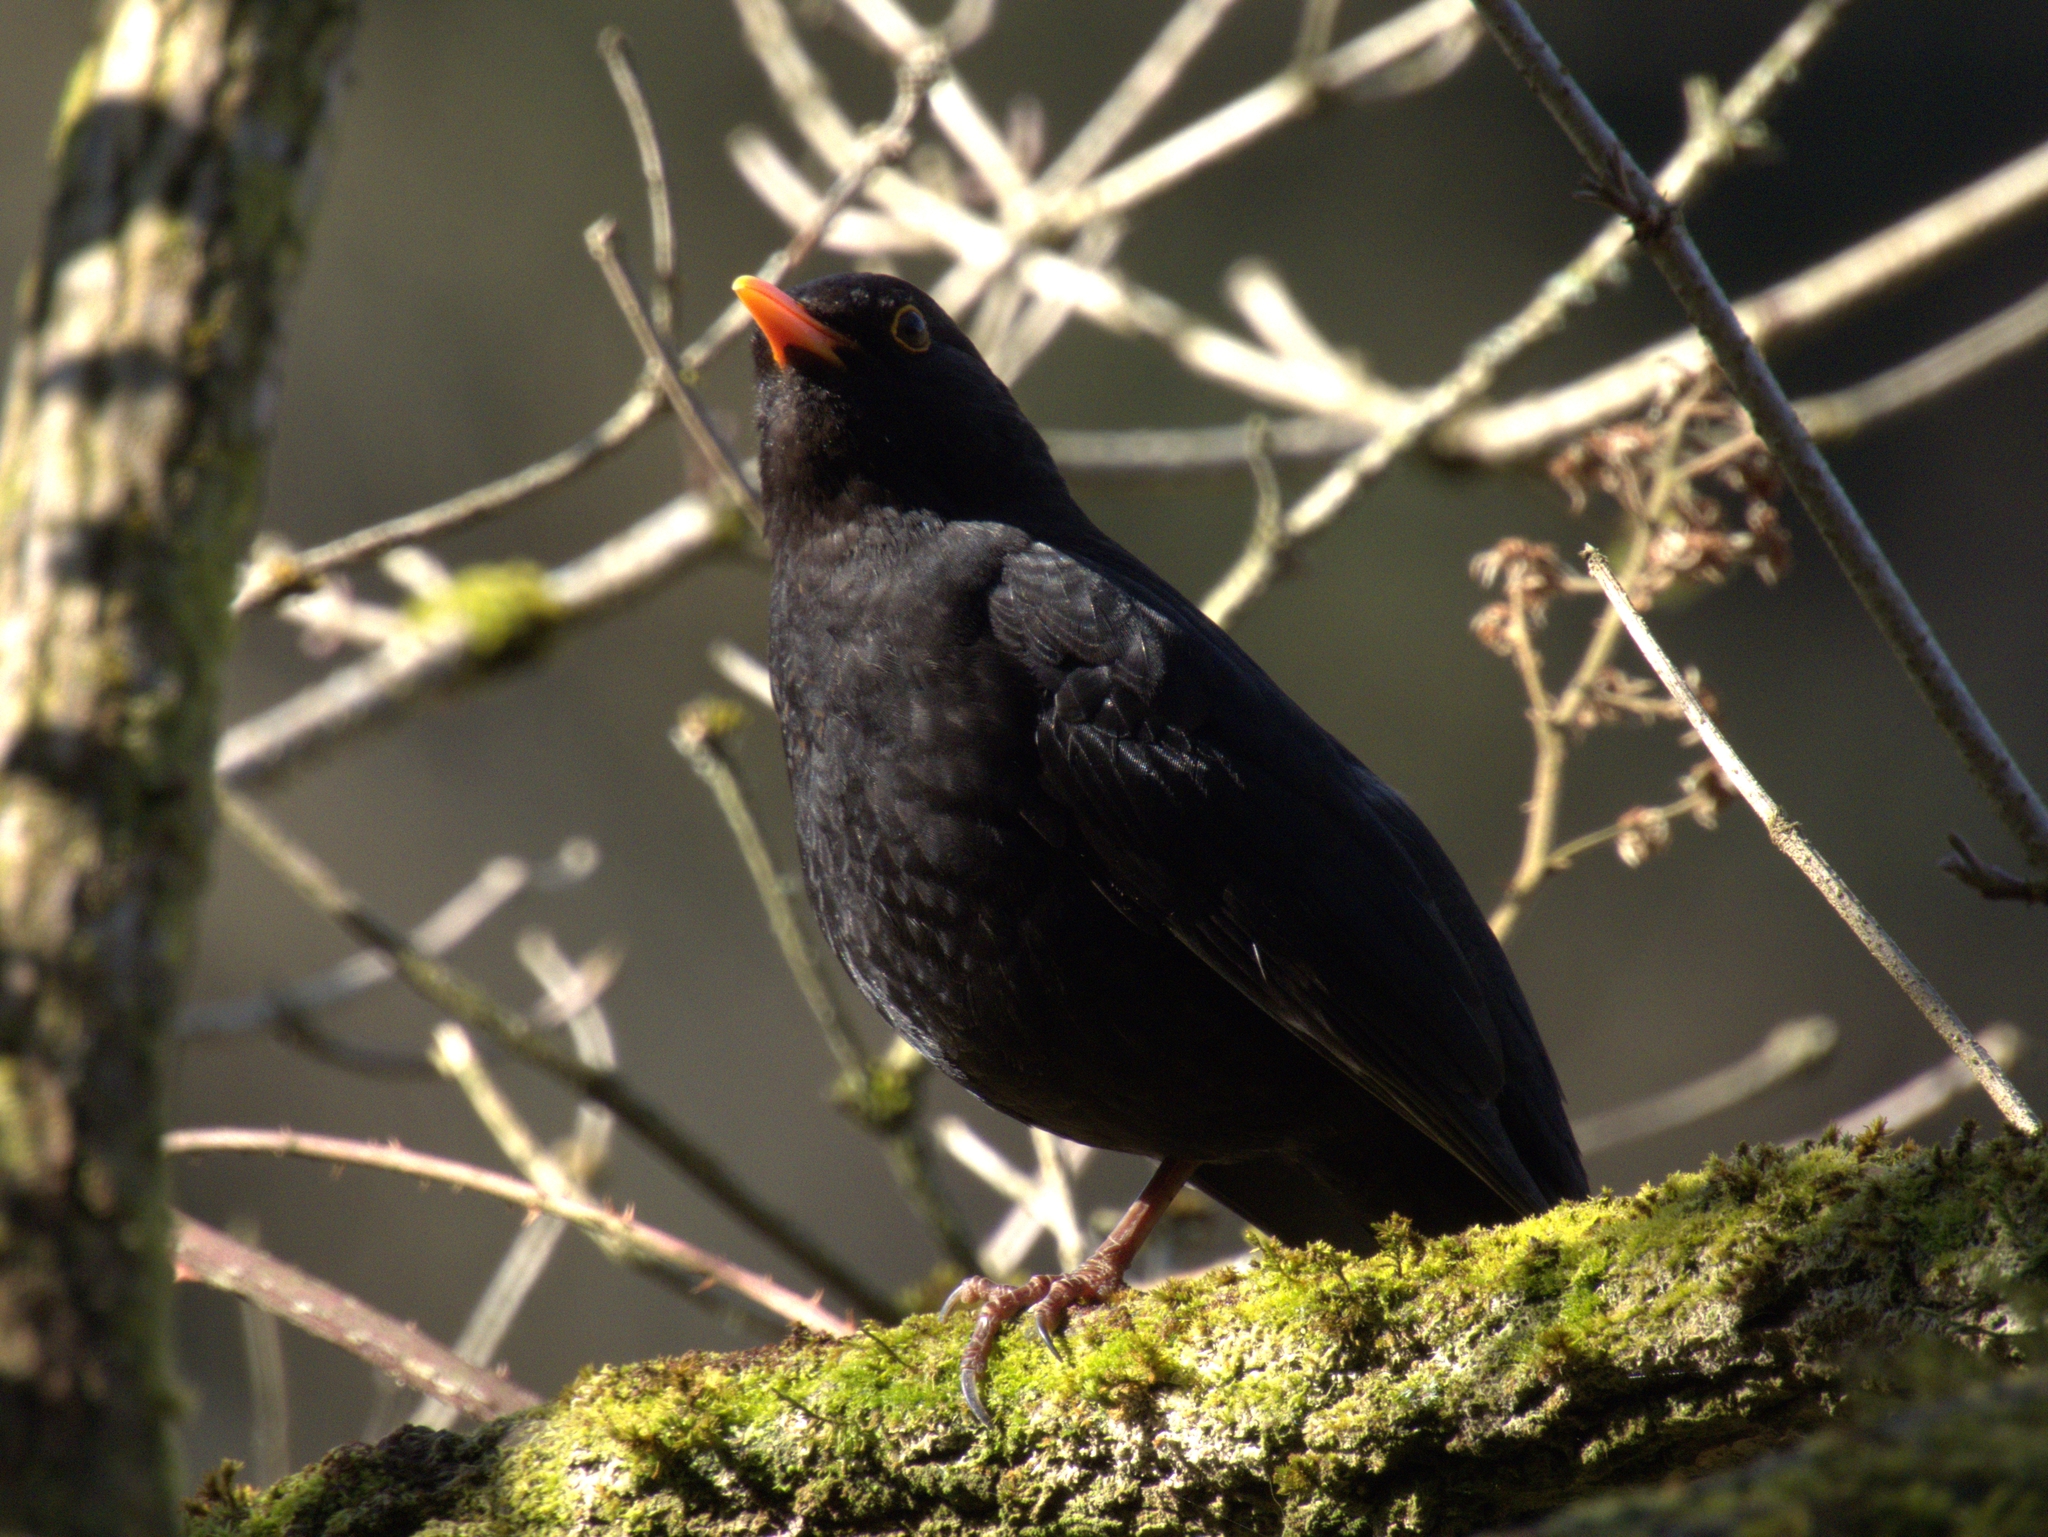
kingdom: Animalia
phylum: Chordata
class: Aves
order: Passeriformes
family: Turdidae
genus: Turdus
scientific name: Turdus merula
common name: Common blackbird
